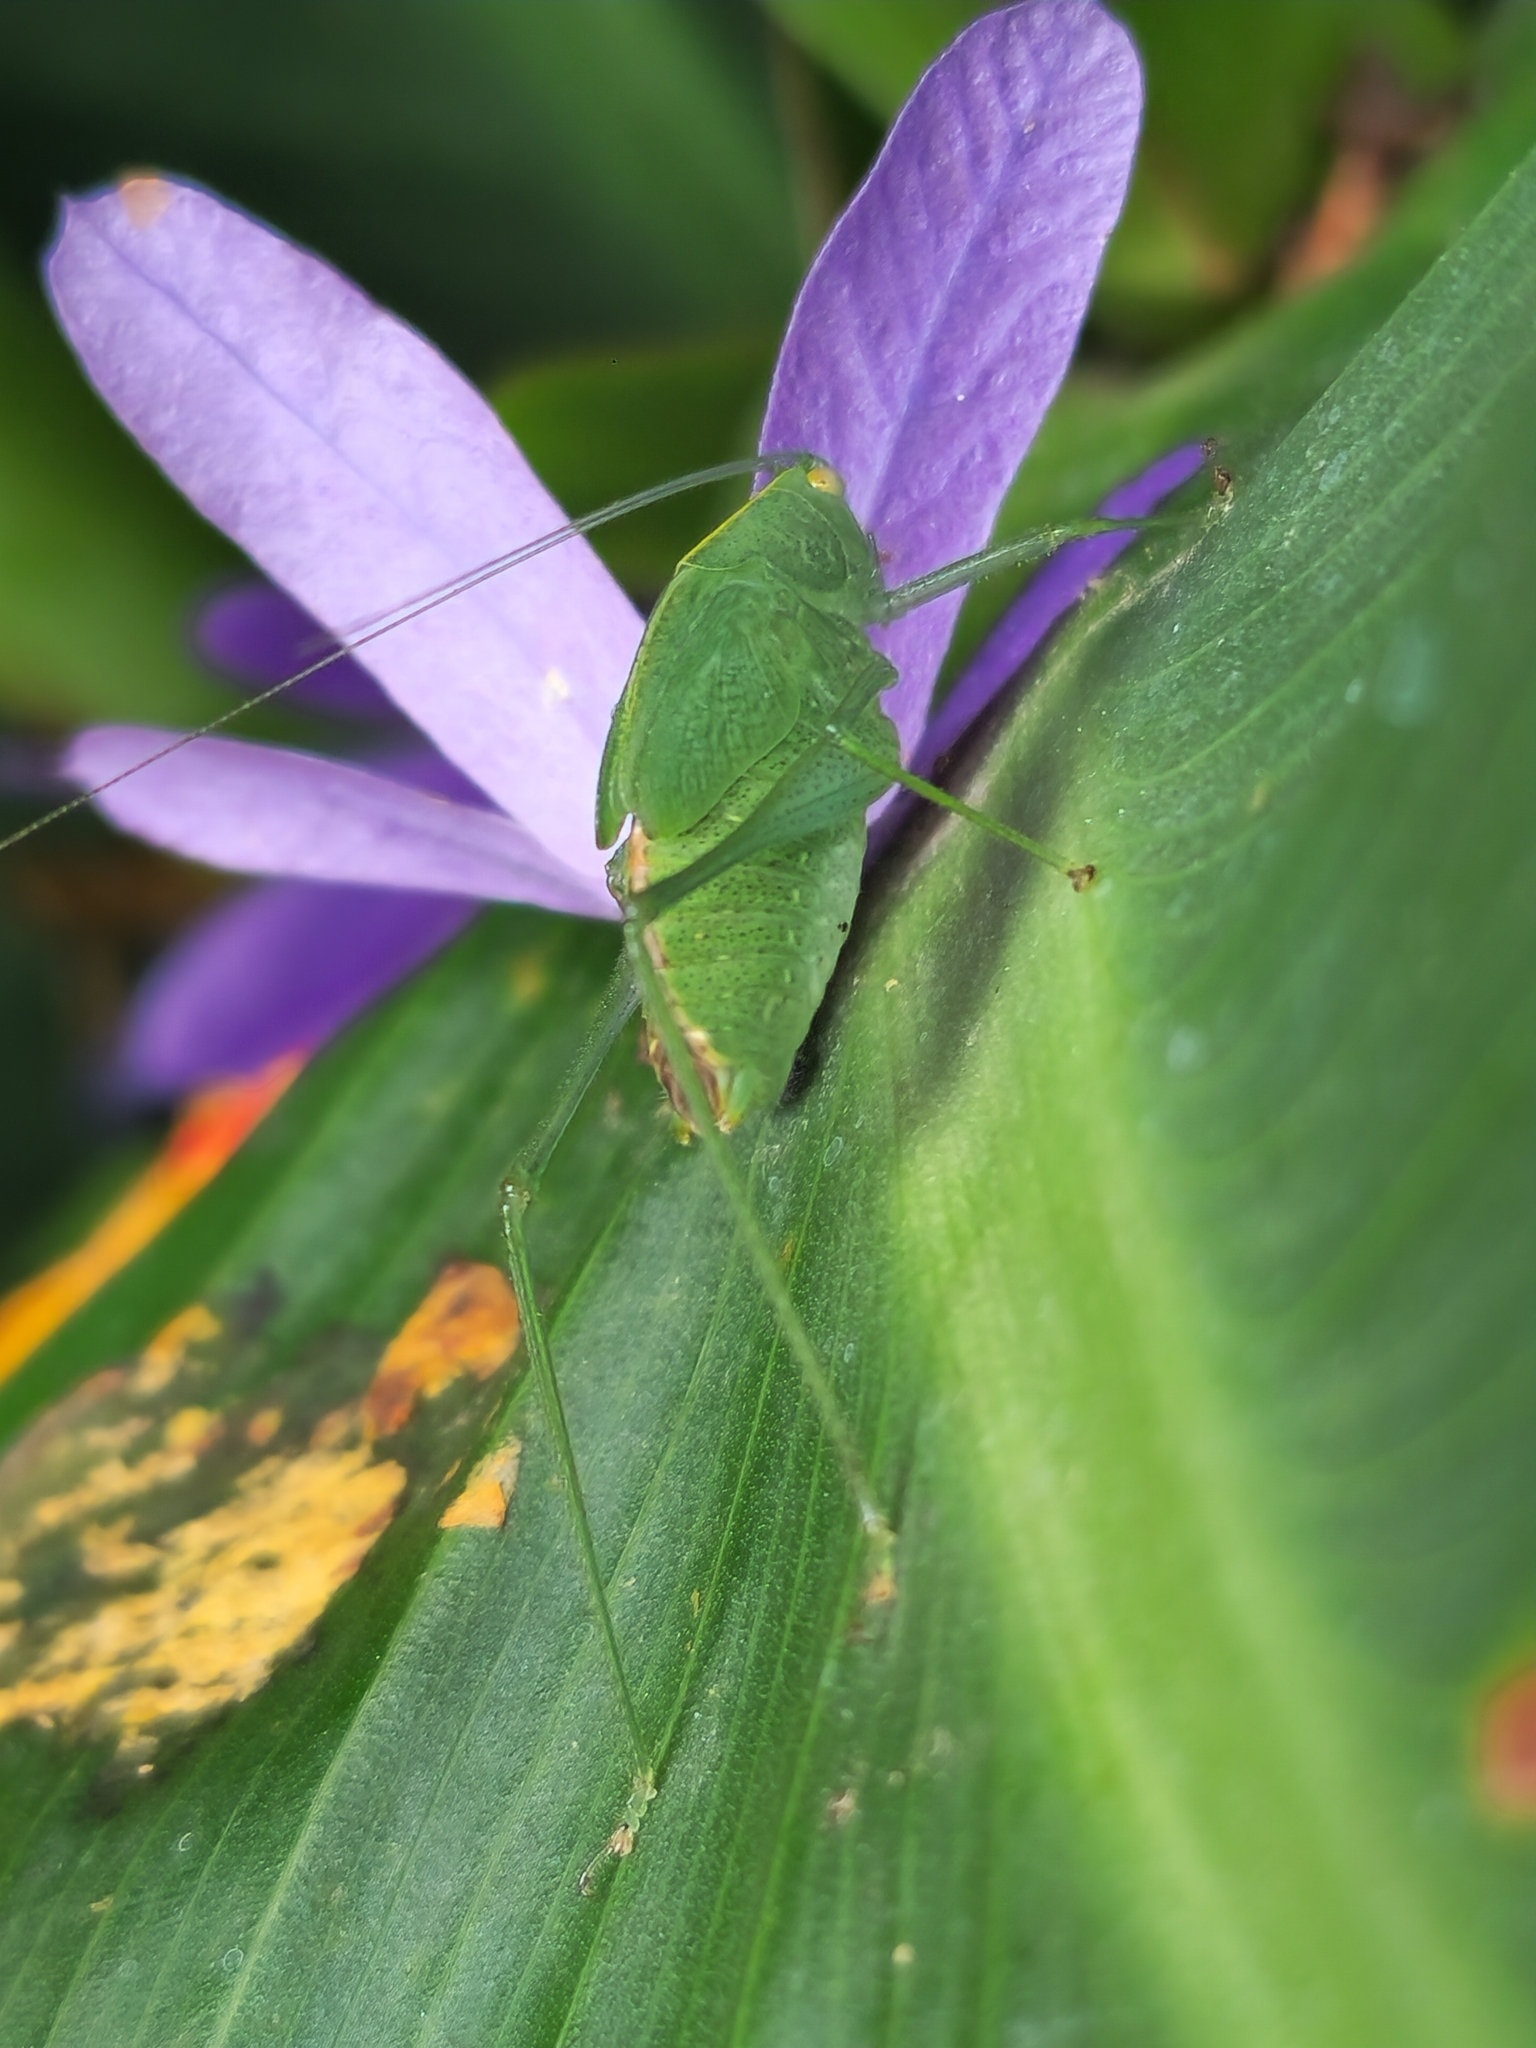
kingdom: Animalia
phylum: Arthropoda
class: Insecta
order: Orthoptera
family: Tettigoniidae
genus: Grammadera
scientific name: Grammadera clara
